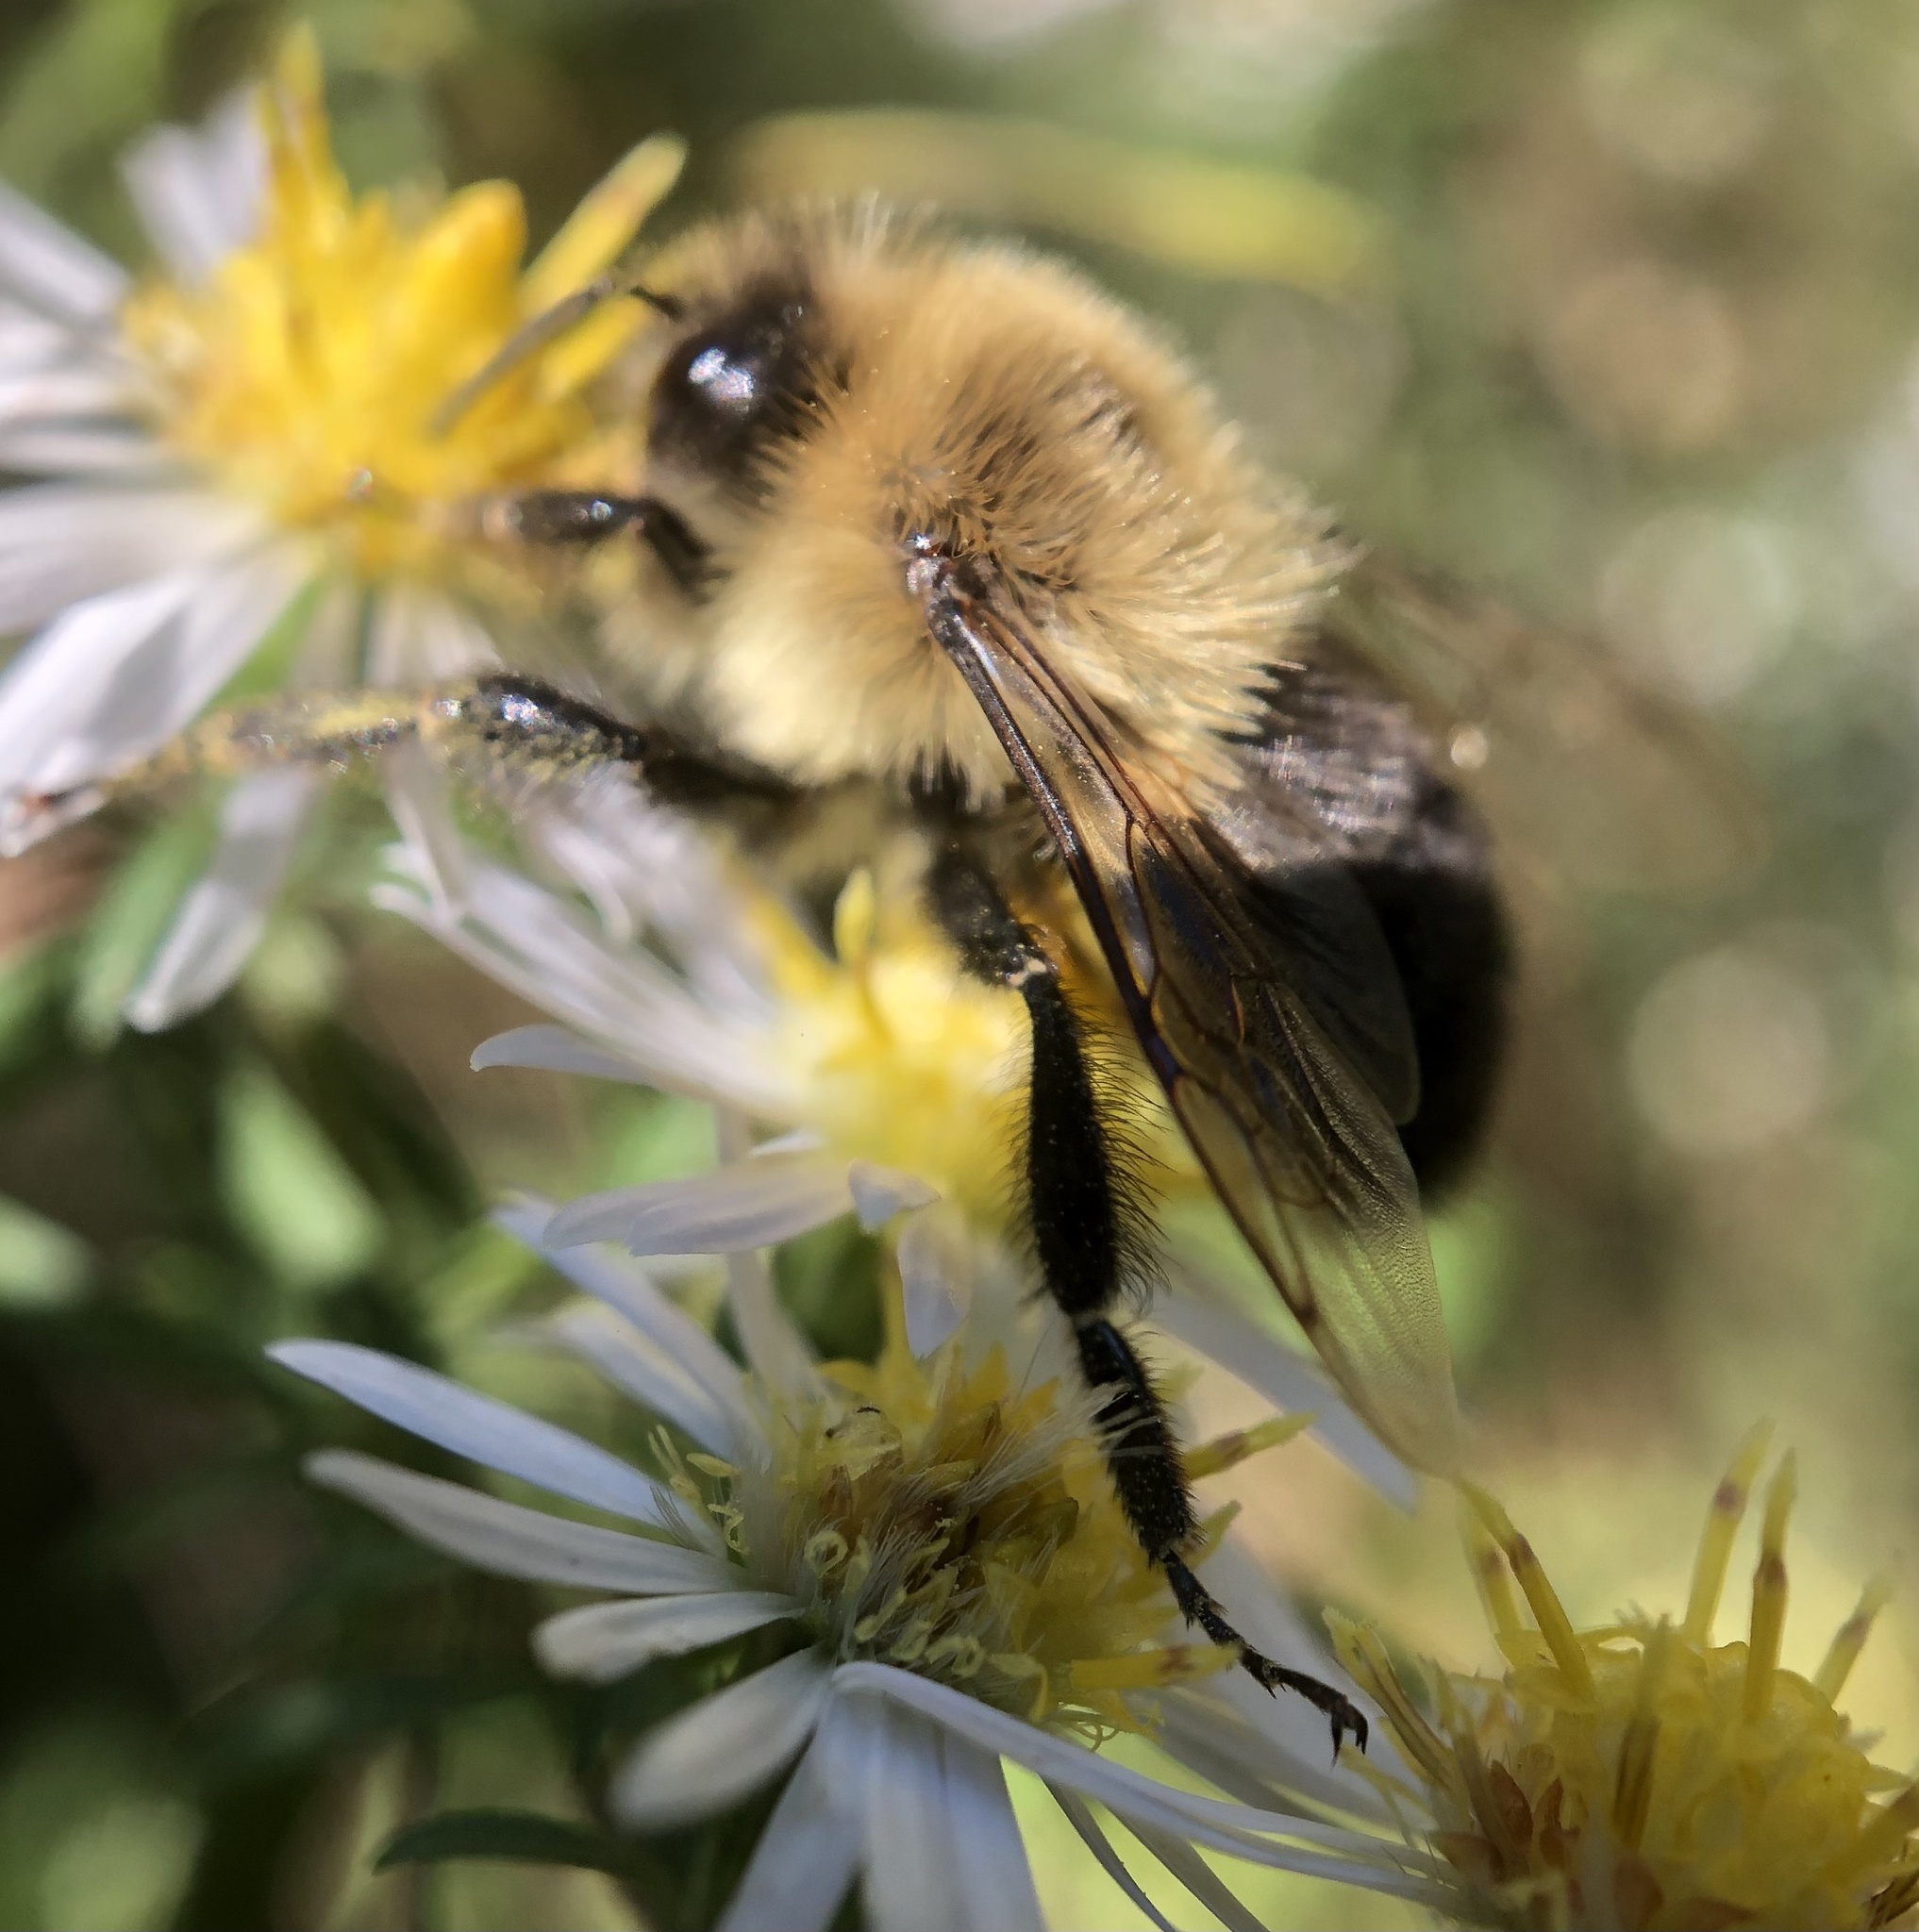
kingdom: Animalia
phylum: Arthropoda
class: Insecta
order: Hymenoptera
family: Apidae
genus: Bombus
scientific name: Bombus impatiens
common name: Common eastern bumble bee
